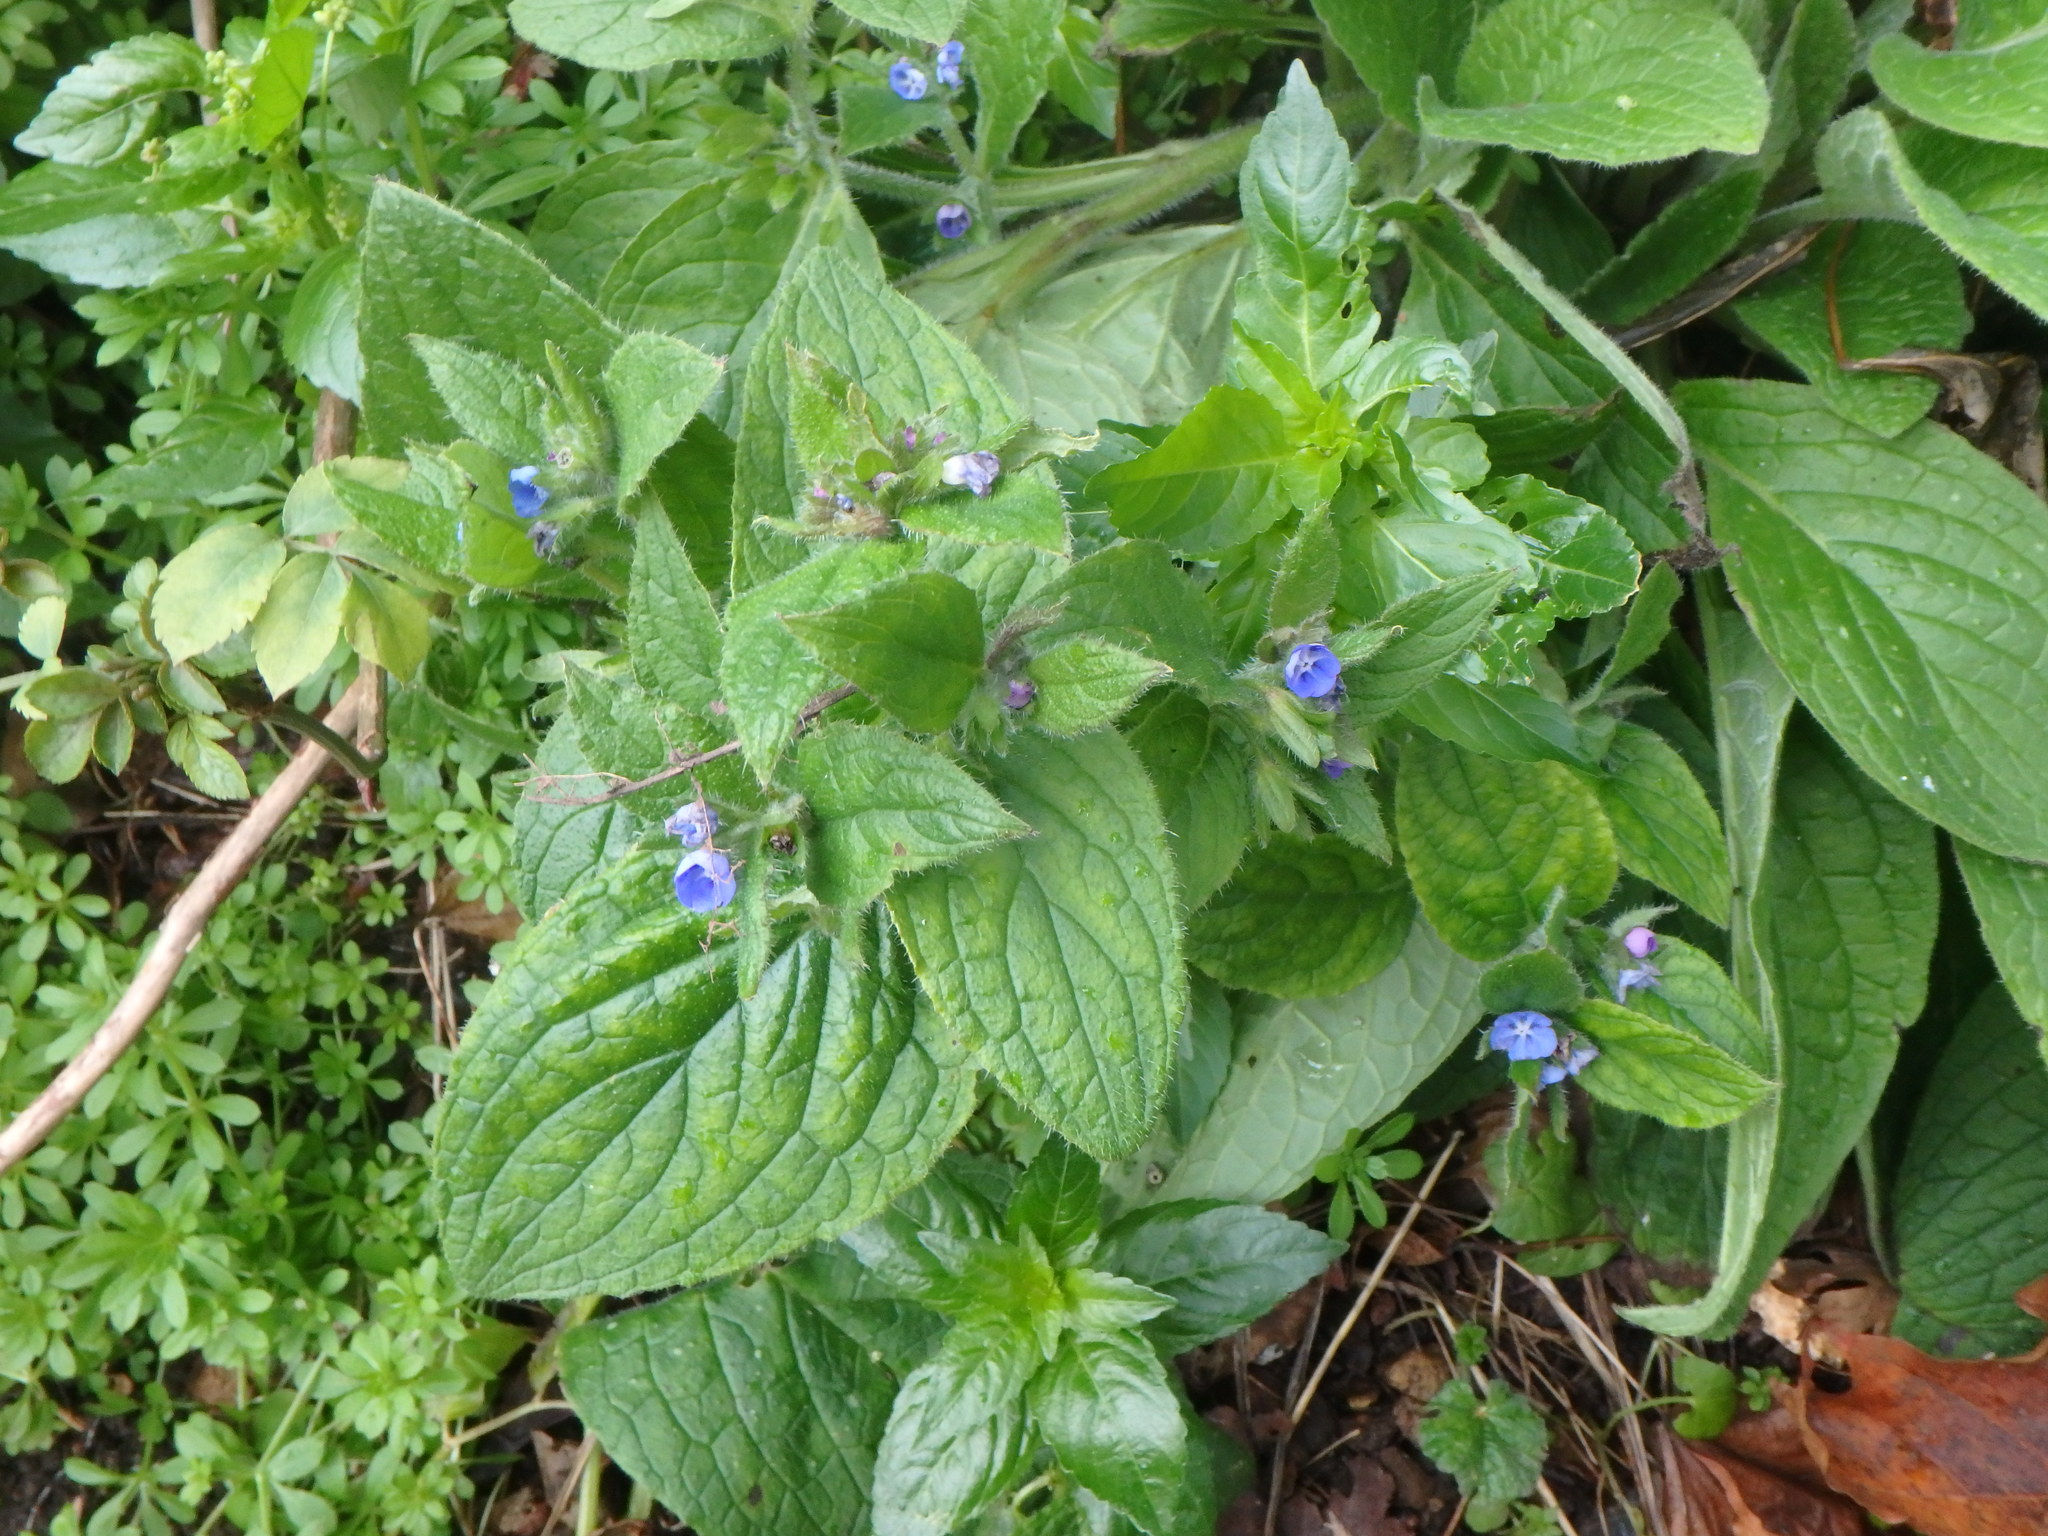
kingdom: Plantae
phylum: Tracheophyta
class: Magnoliopsida
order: Boraginales
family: Boraginaceae
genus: Pentaglottis
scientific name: Pentaglottis sempervirens
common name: Green alkanet
